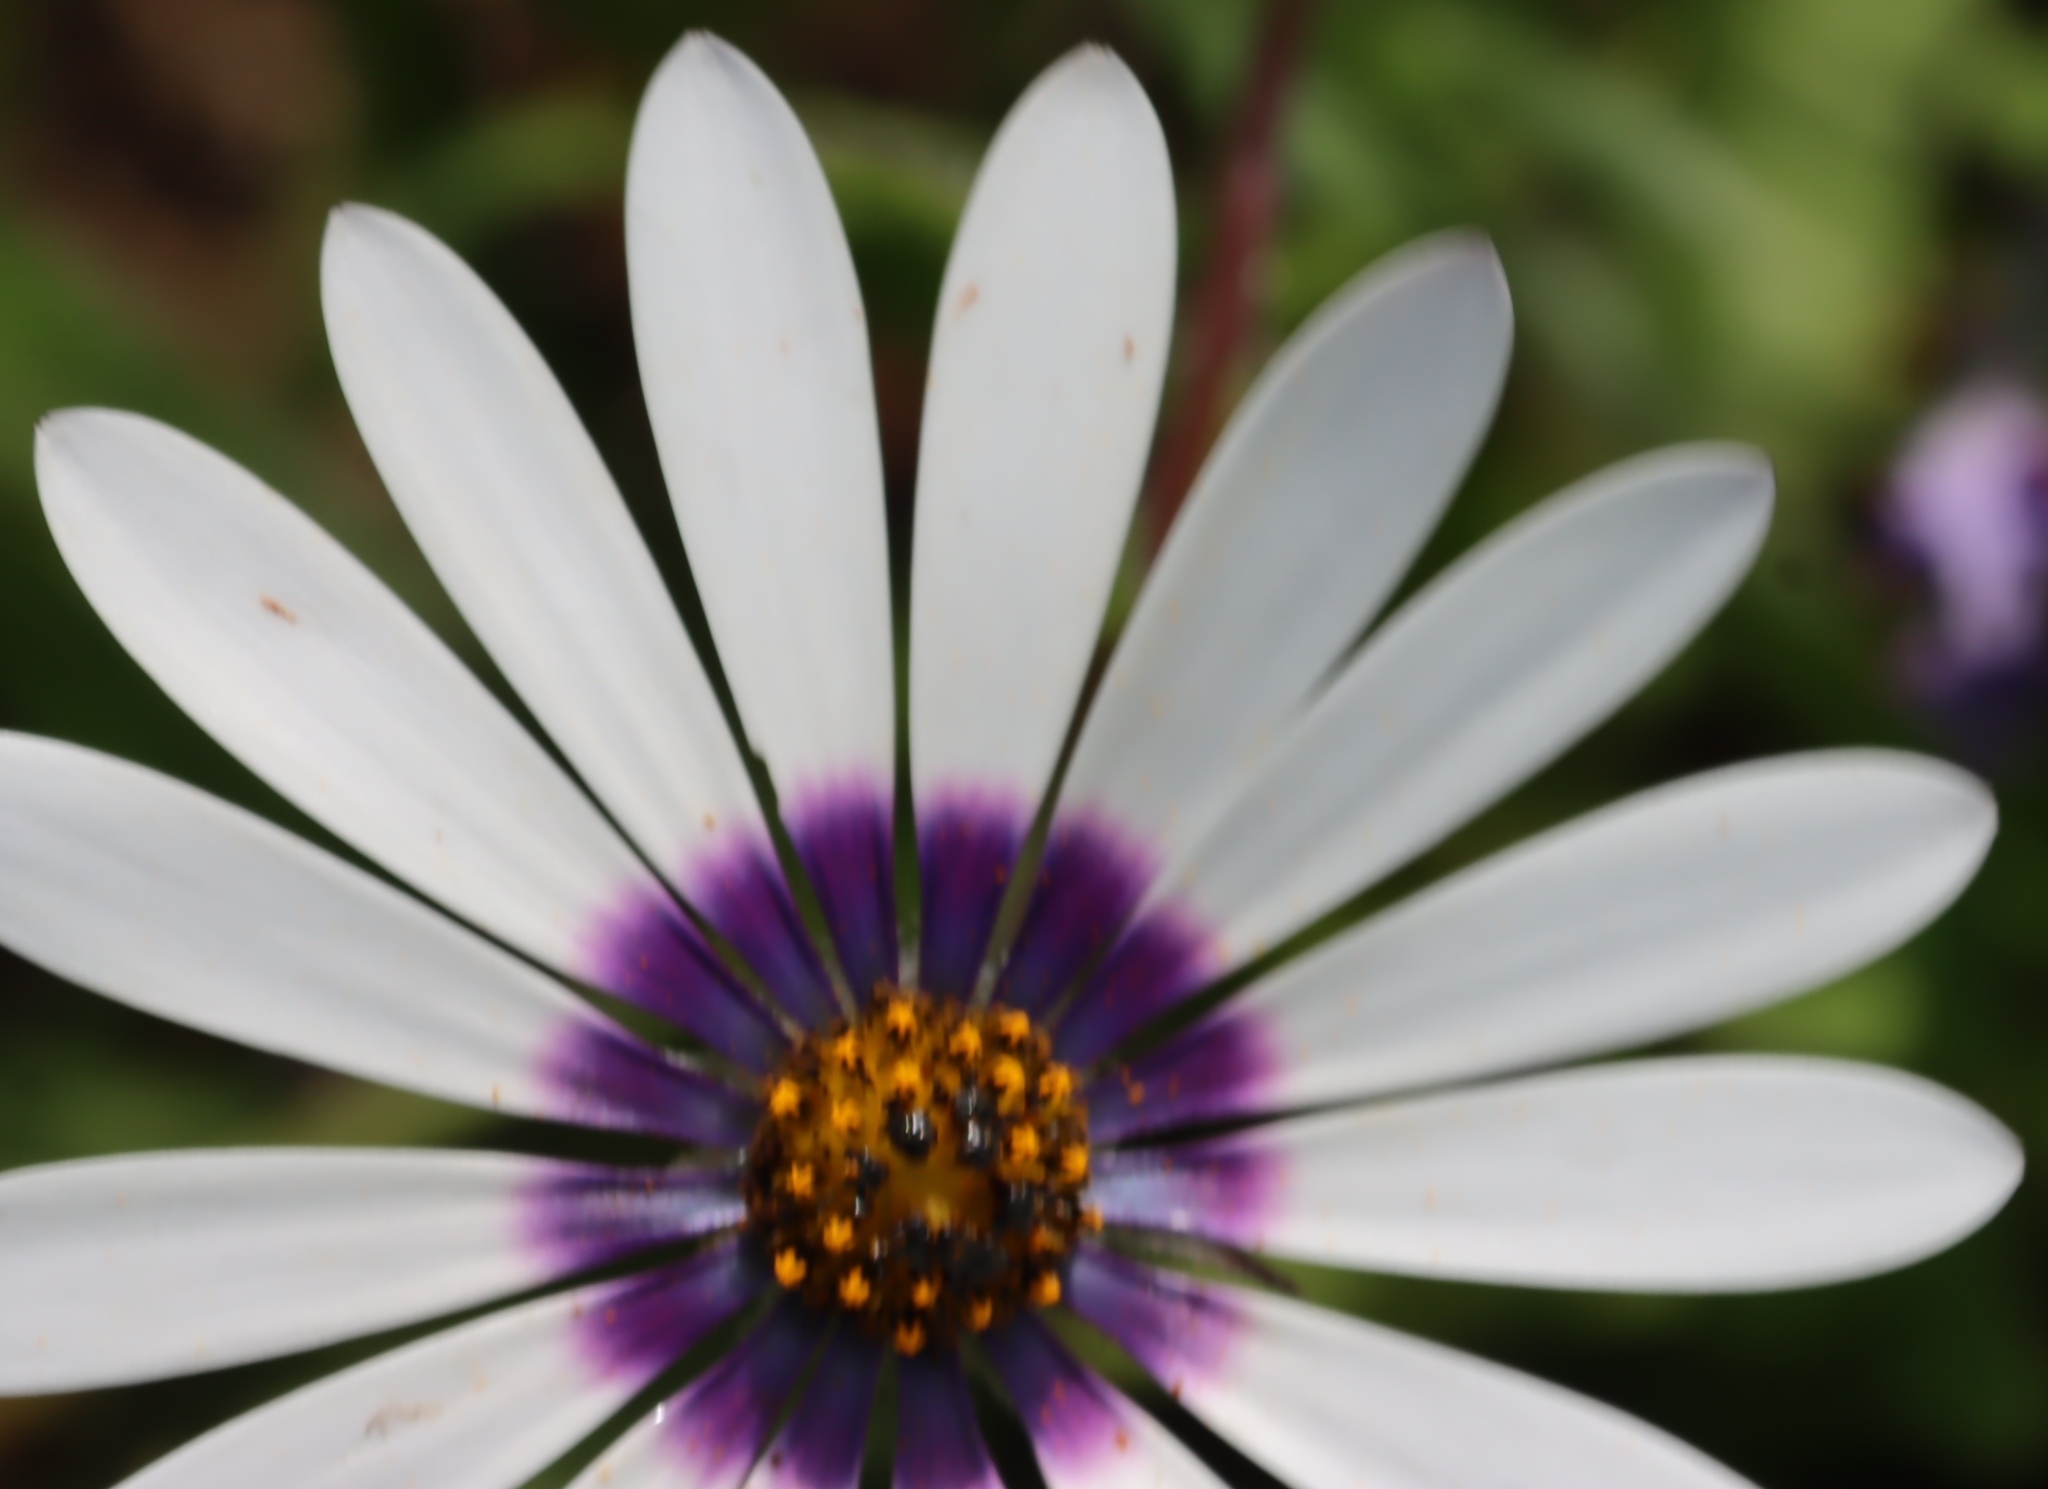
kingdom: Plantae
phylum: Tracheophyta
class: Magnoliopsida
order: Asterales
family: Asteraceae
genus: Felicia
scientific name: Felicia elongata
